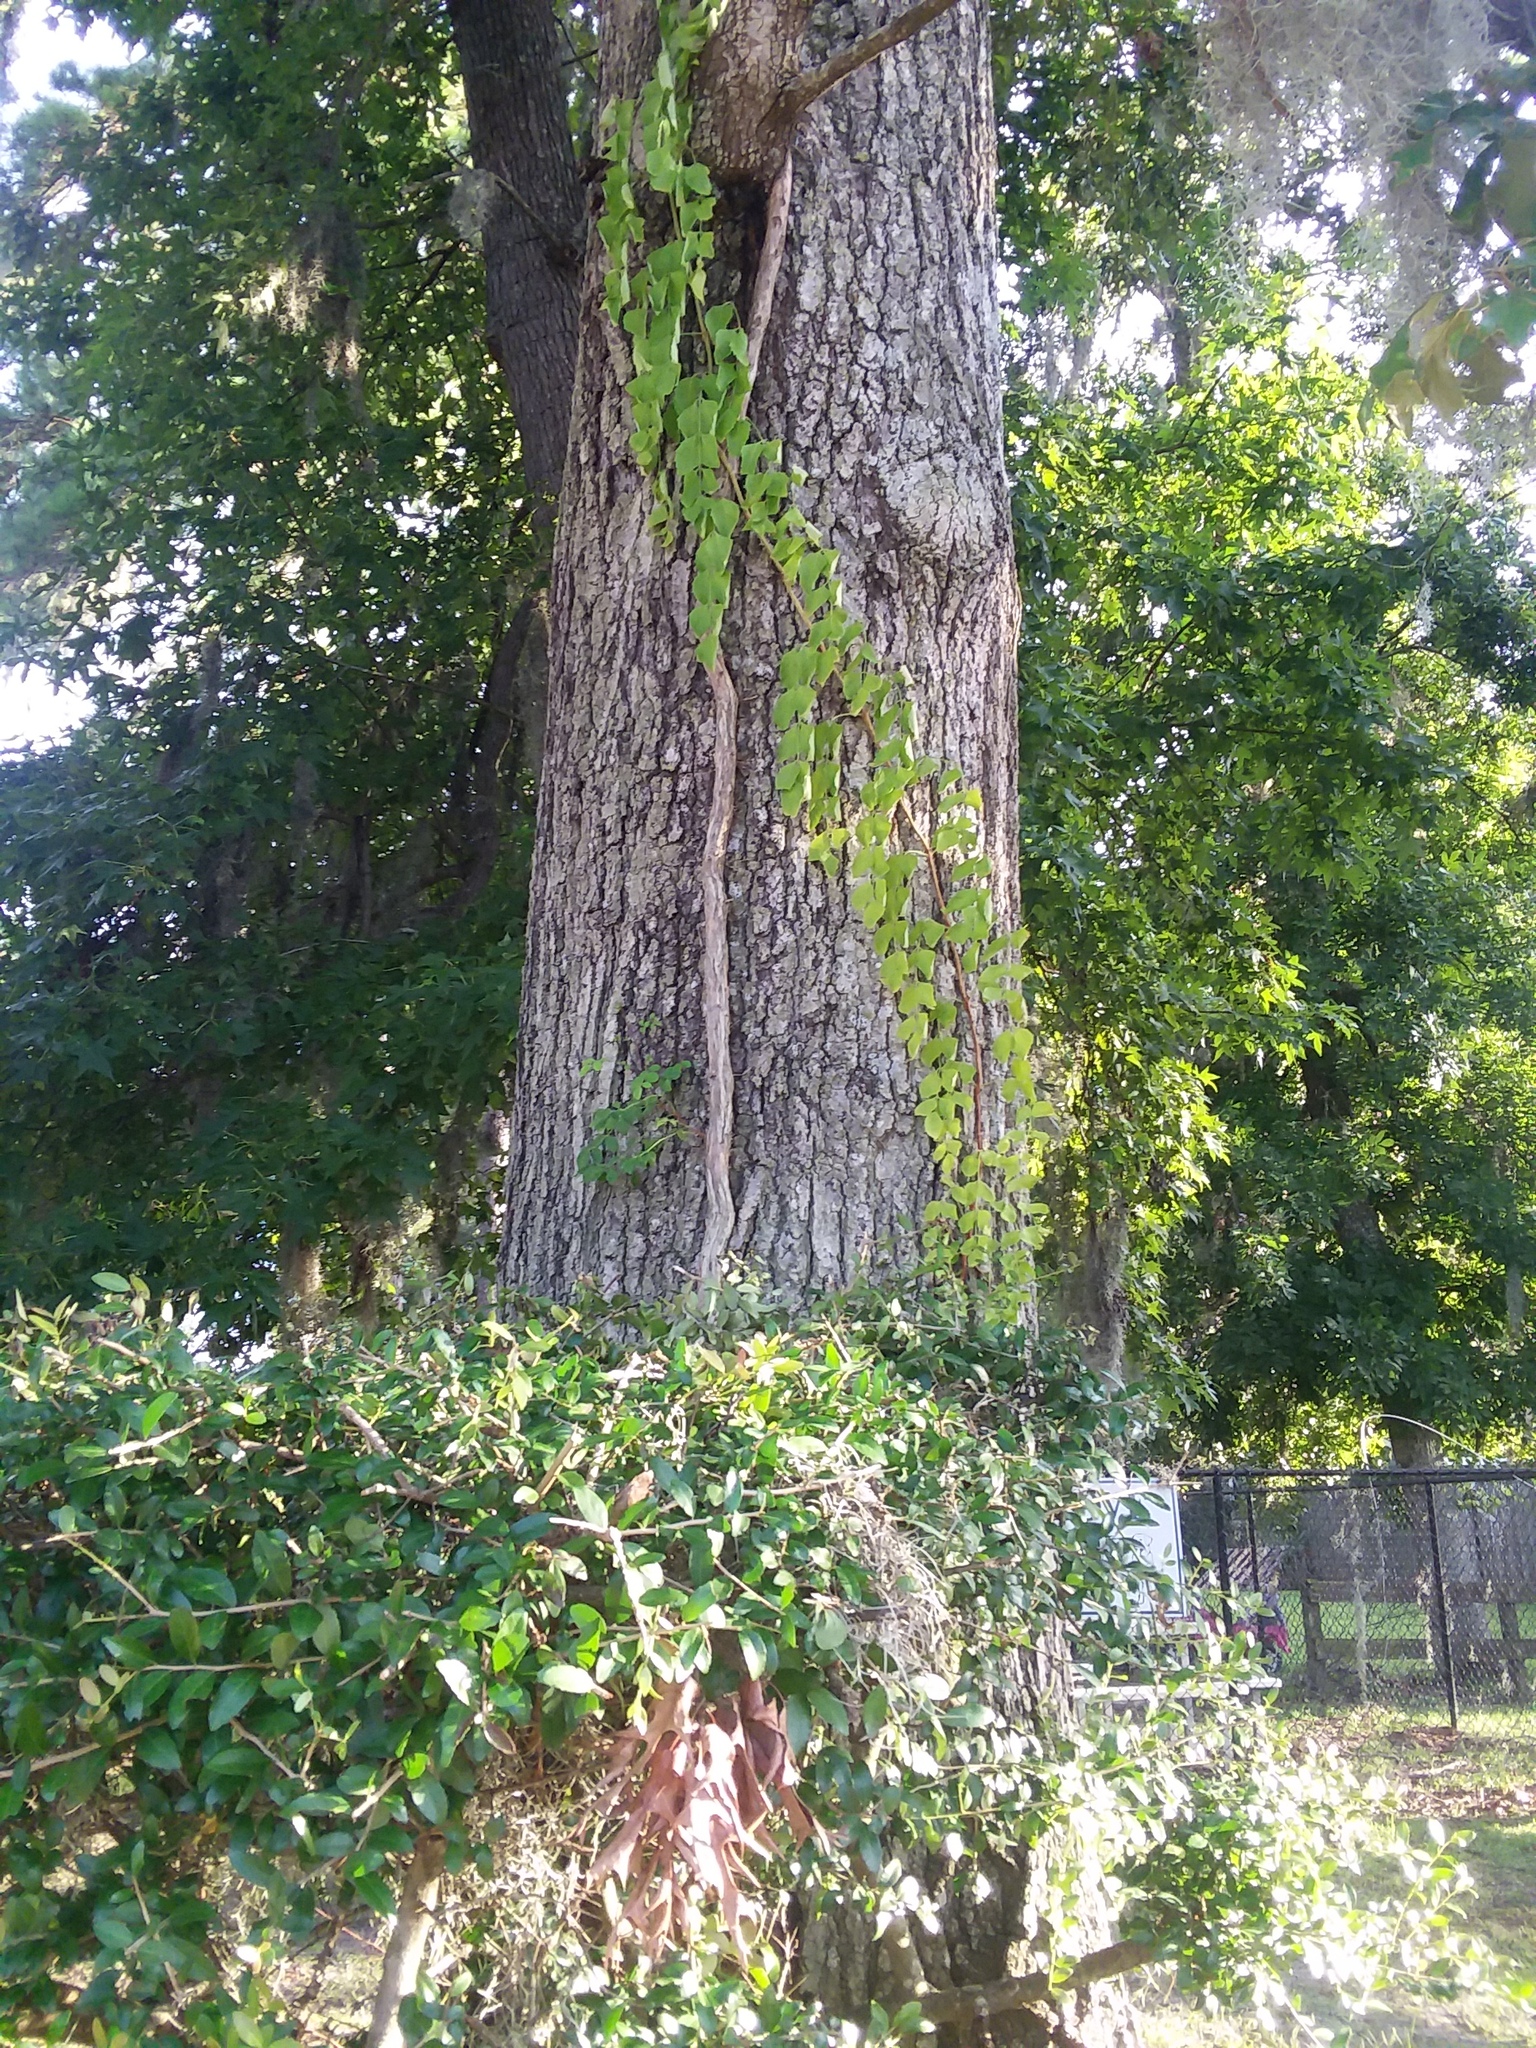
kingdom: Plantae
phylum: Tracheophyta
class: Magnoliopsida
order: Lamiales
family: Bignoniaceae
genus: Campsis
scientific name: Campsis radicans
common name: Trumpet-creeper
